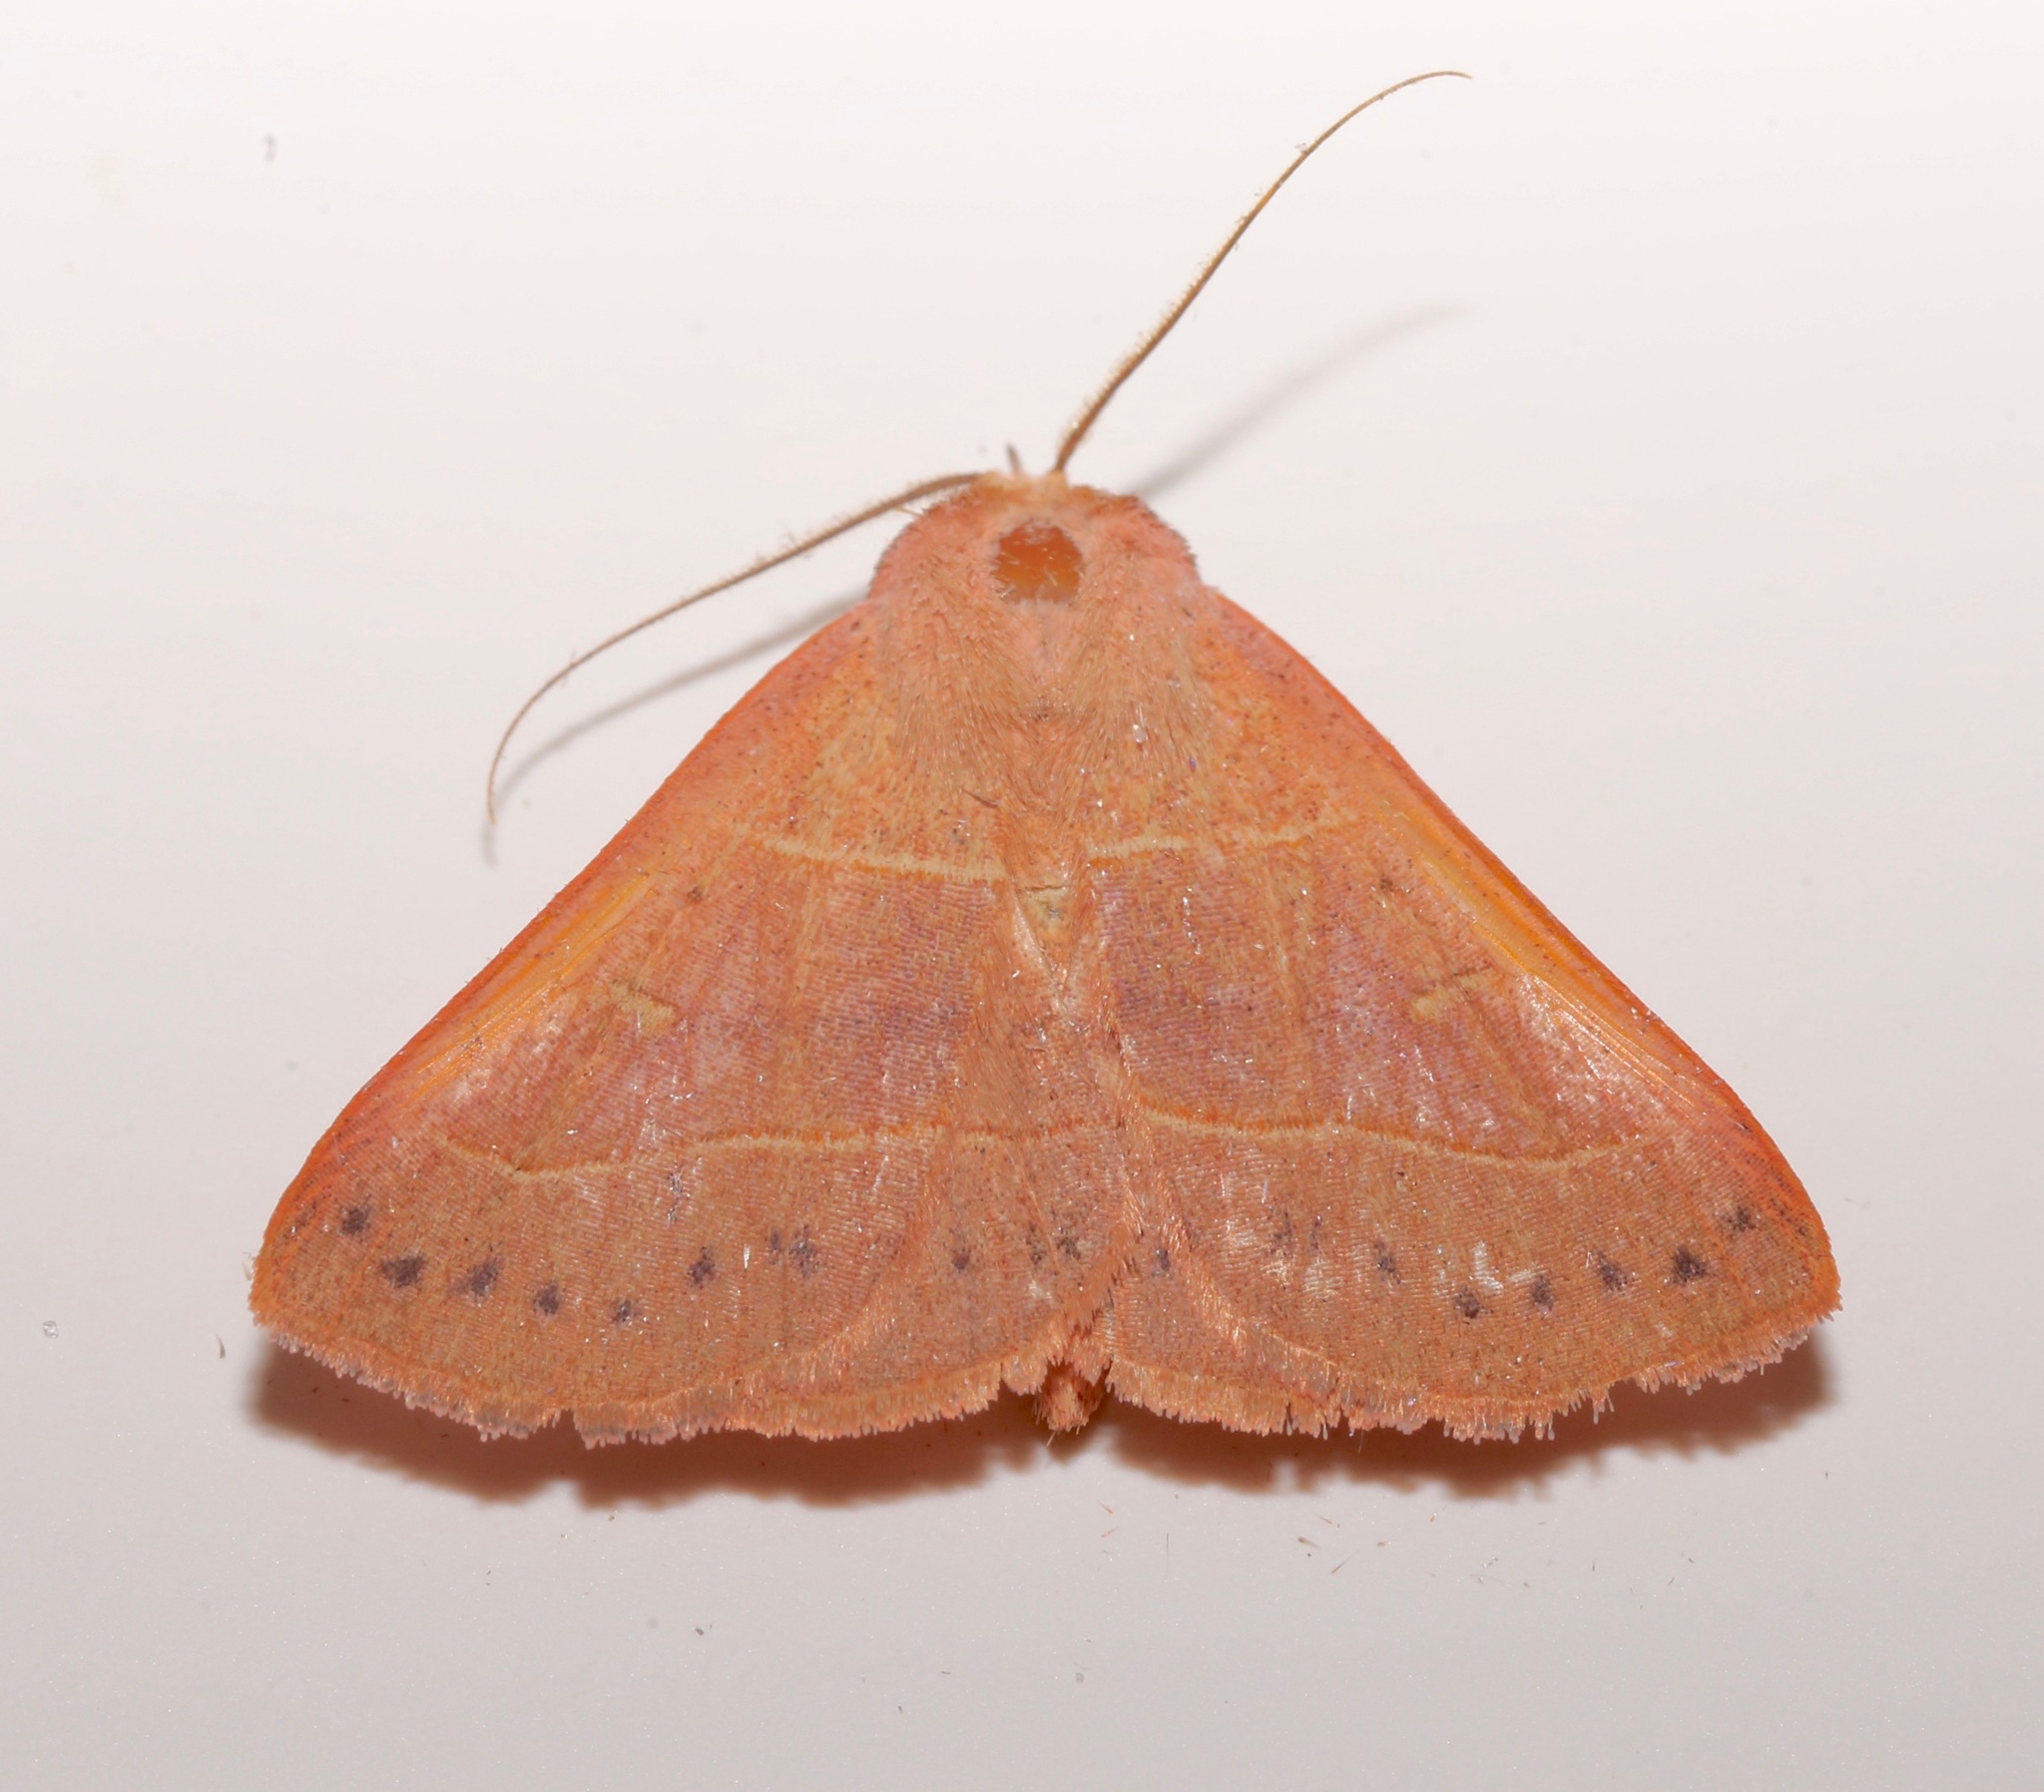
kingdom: Animalia
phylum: Arthropoda
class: Insecta
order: Lepidoptera
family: Erebidae
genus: Panopoda
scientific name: Panopoda rufimargo
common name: Red-lined panopoda moth
